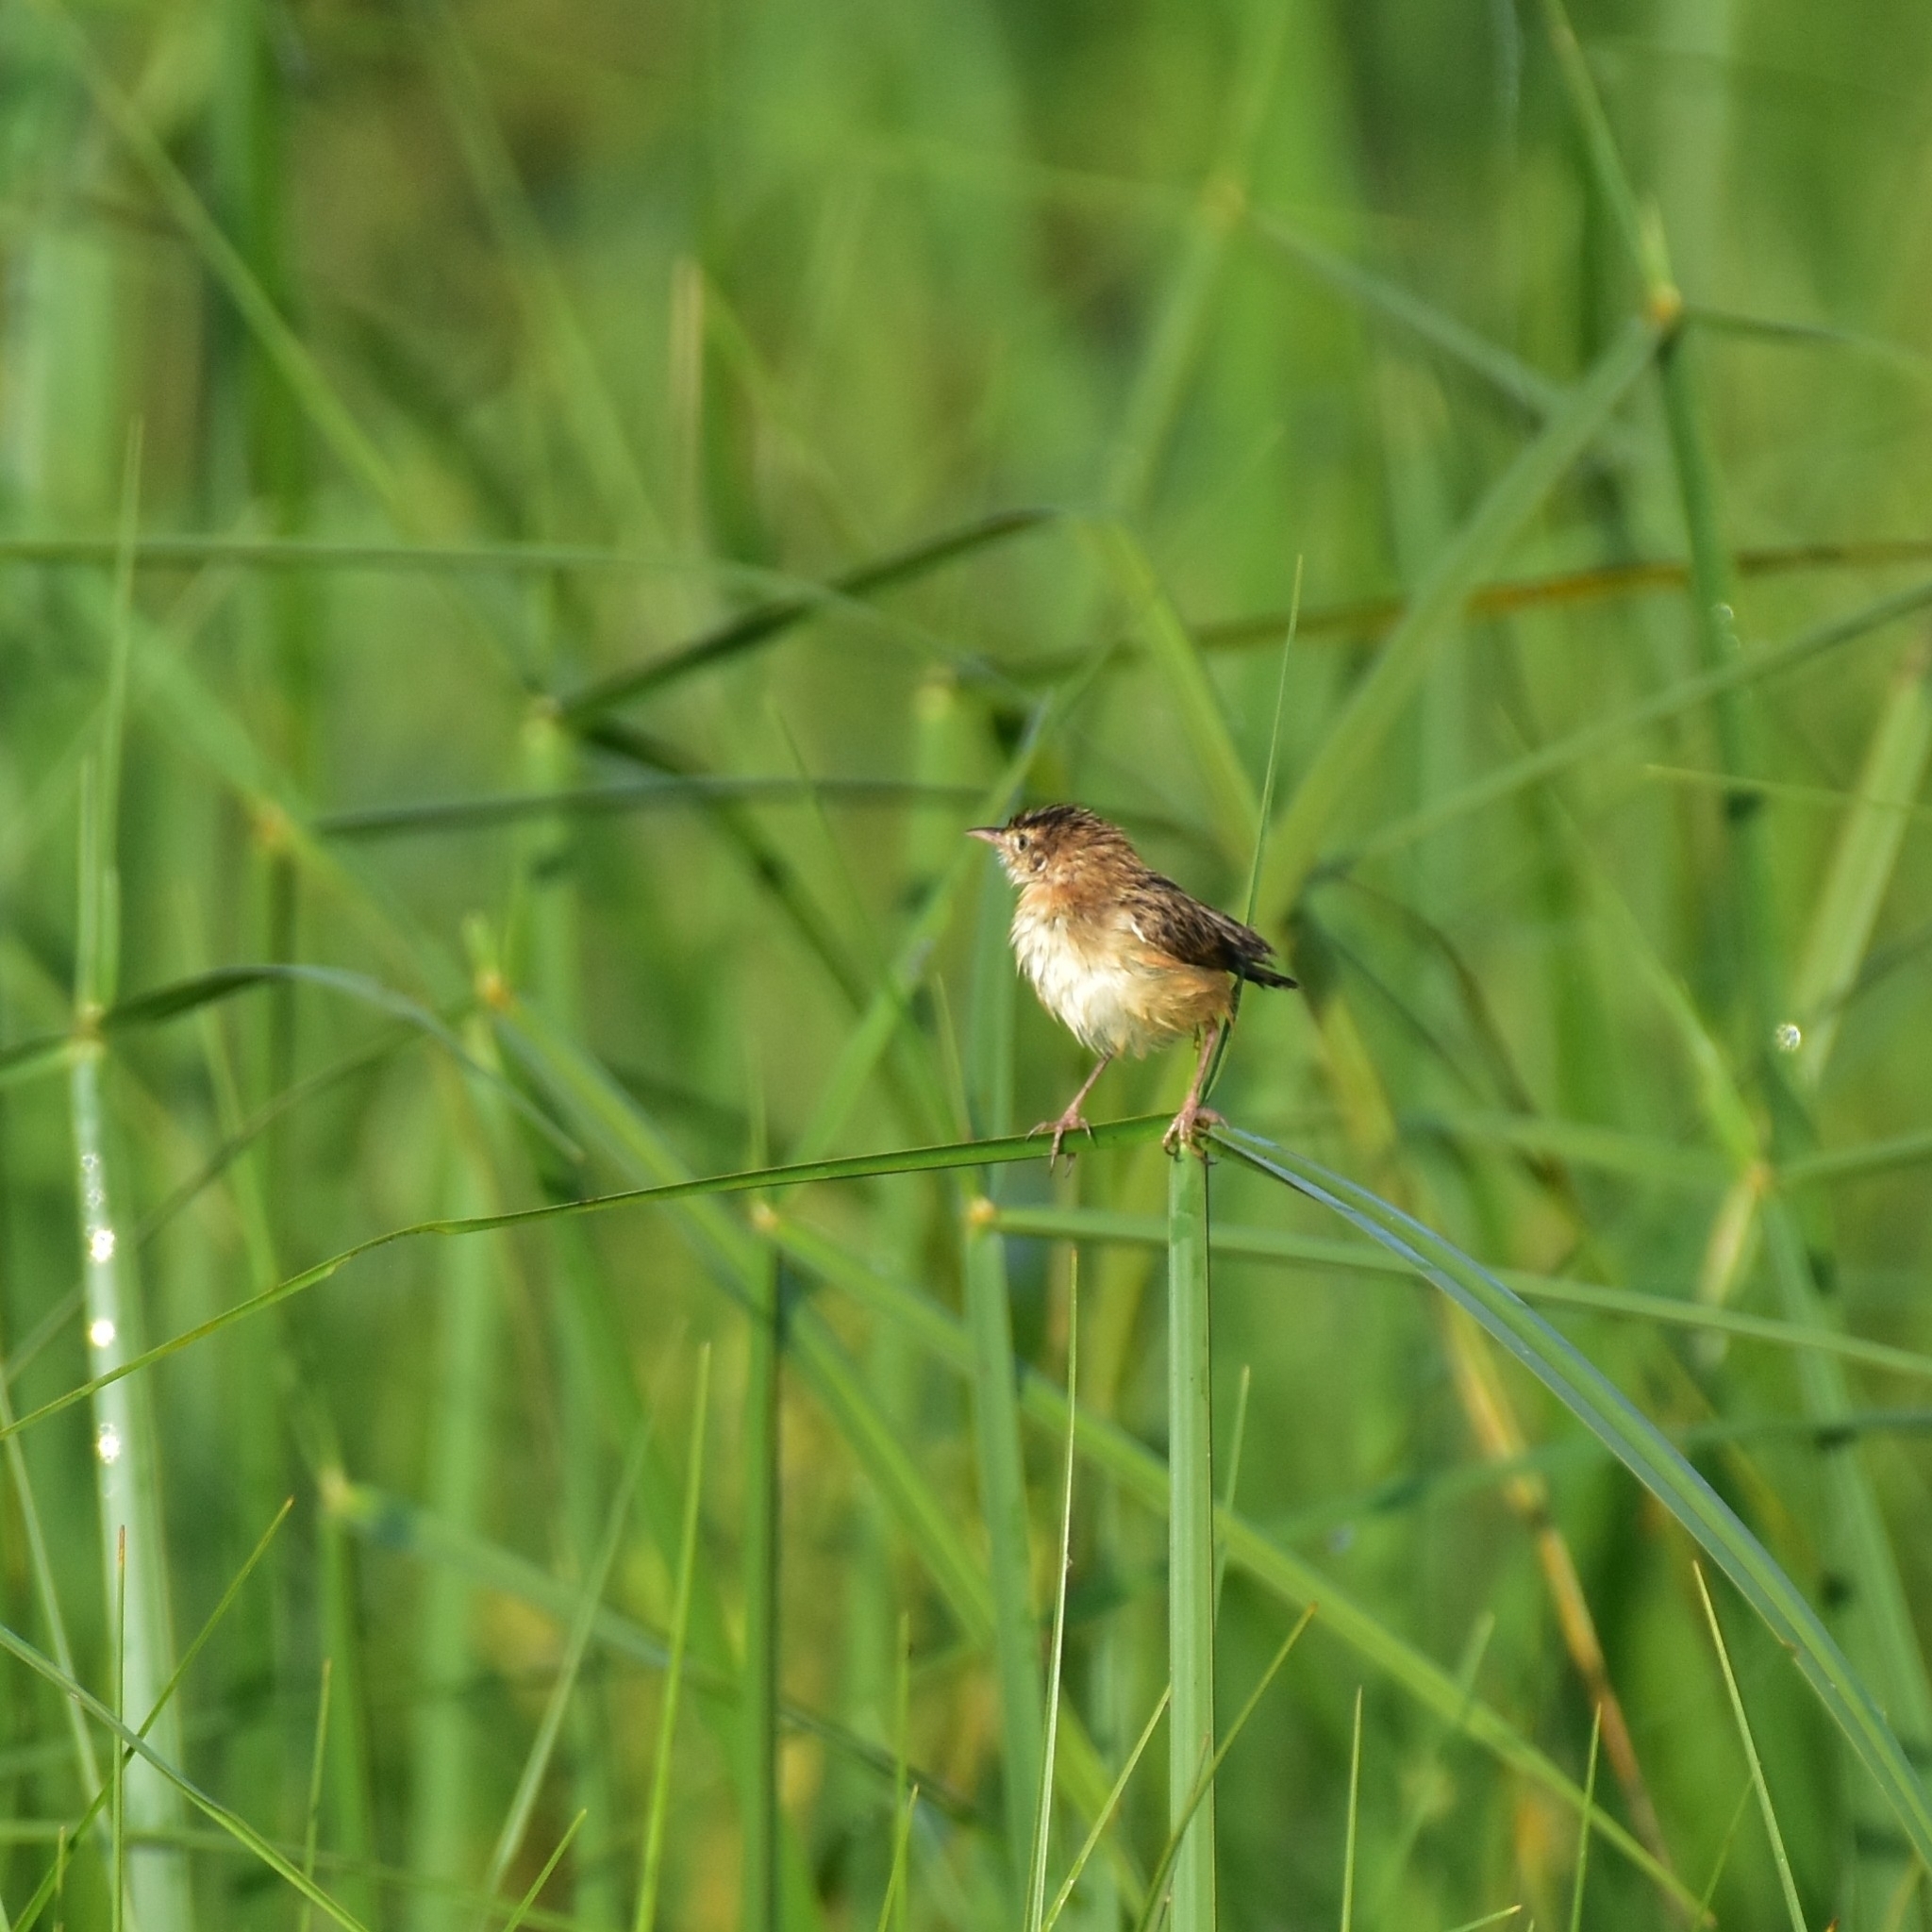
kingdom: Animalia
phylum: Chordata
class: Aves
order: Passeriformes
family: Cisticolidae
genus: Cisticola
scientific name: Cisticola juncidis
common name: Zitting cisticola
